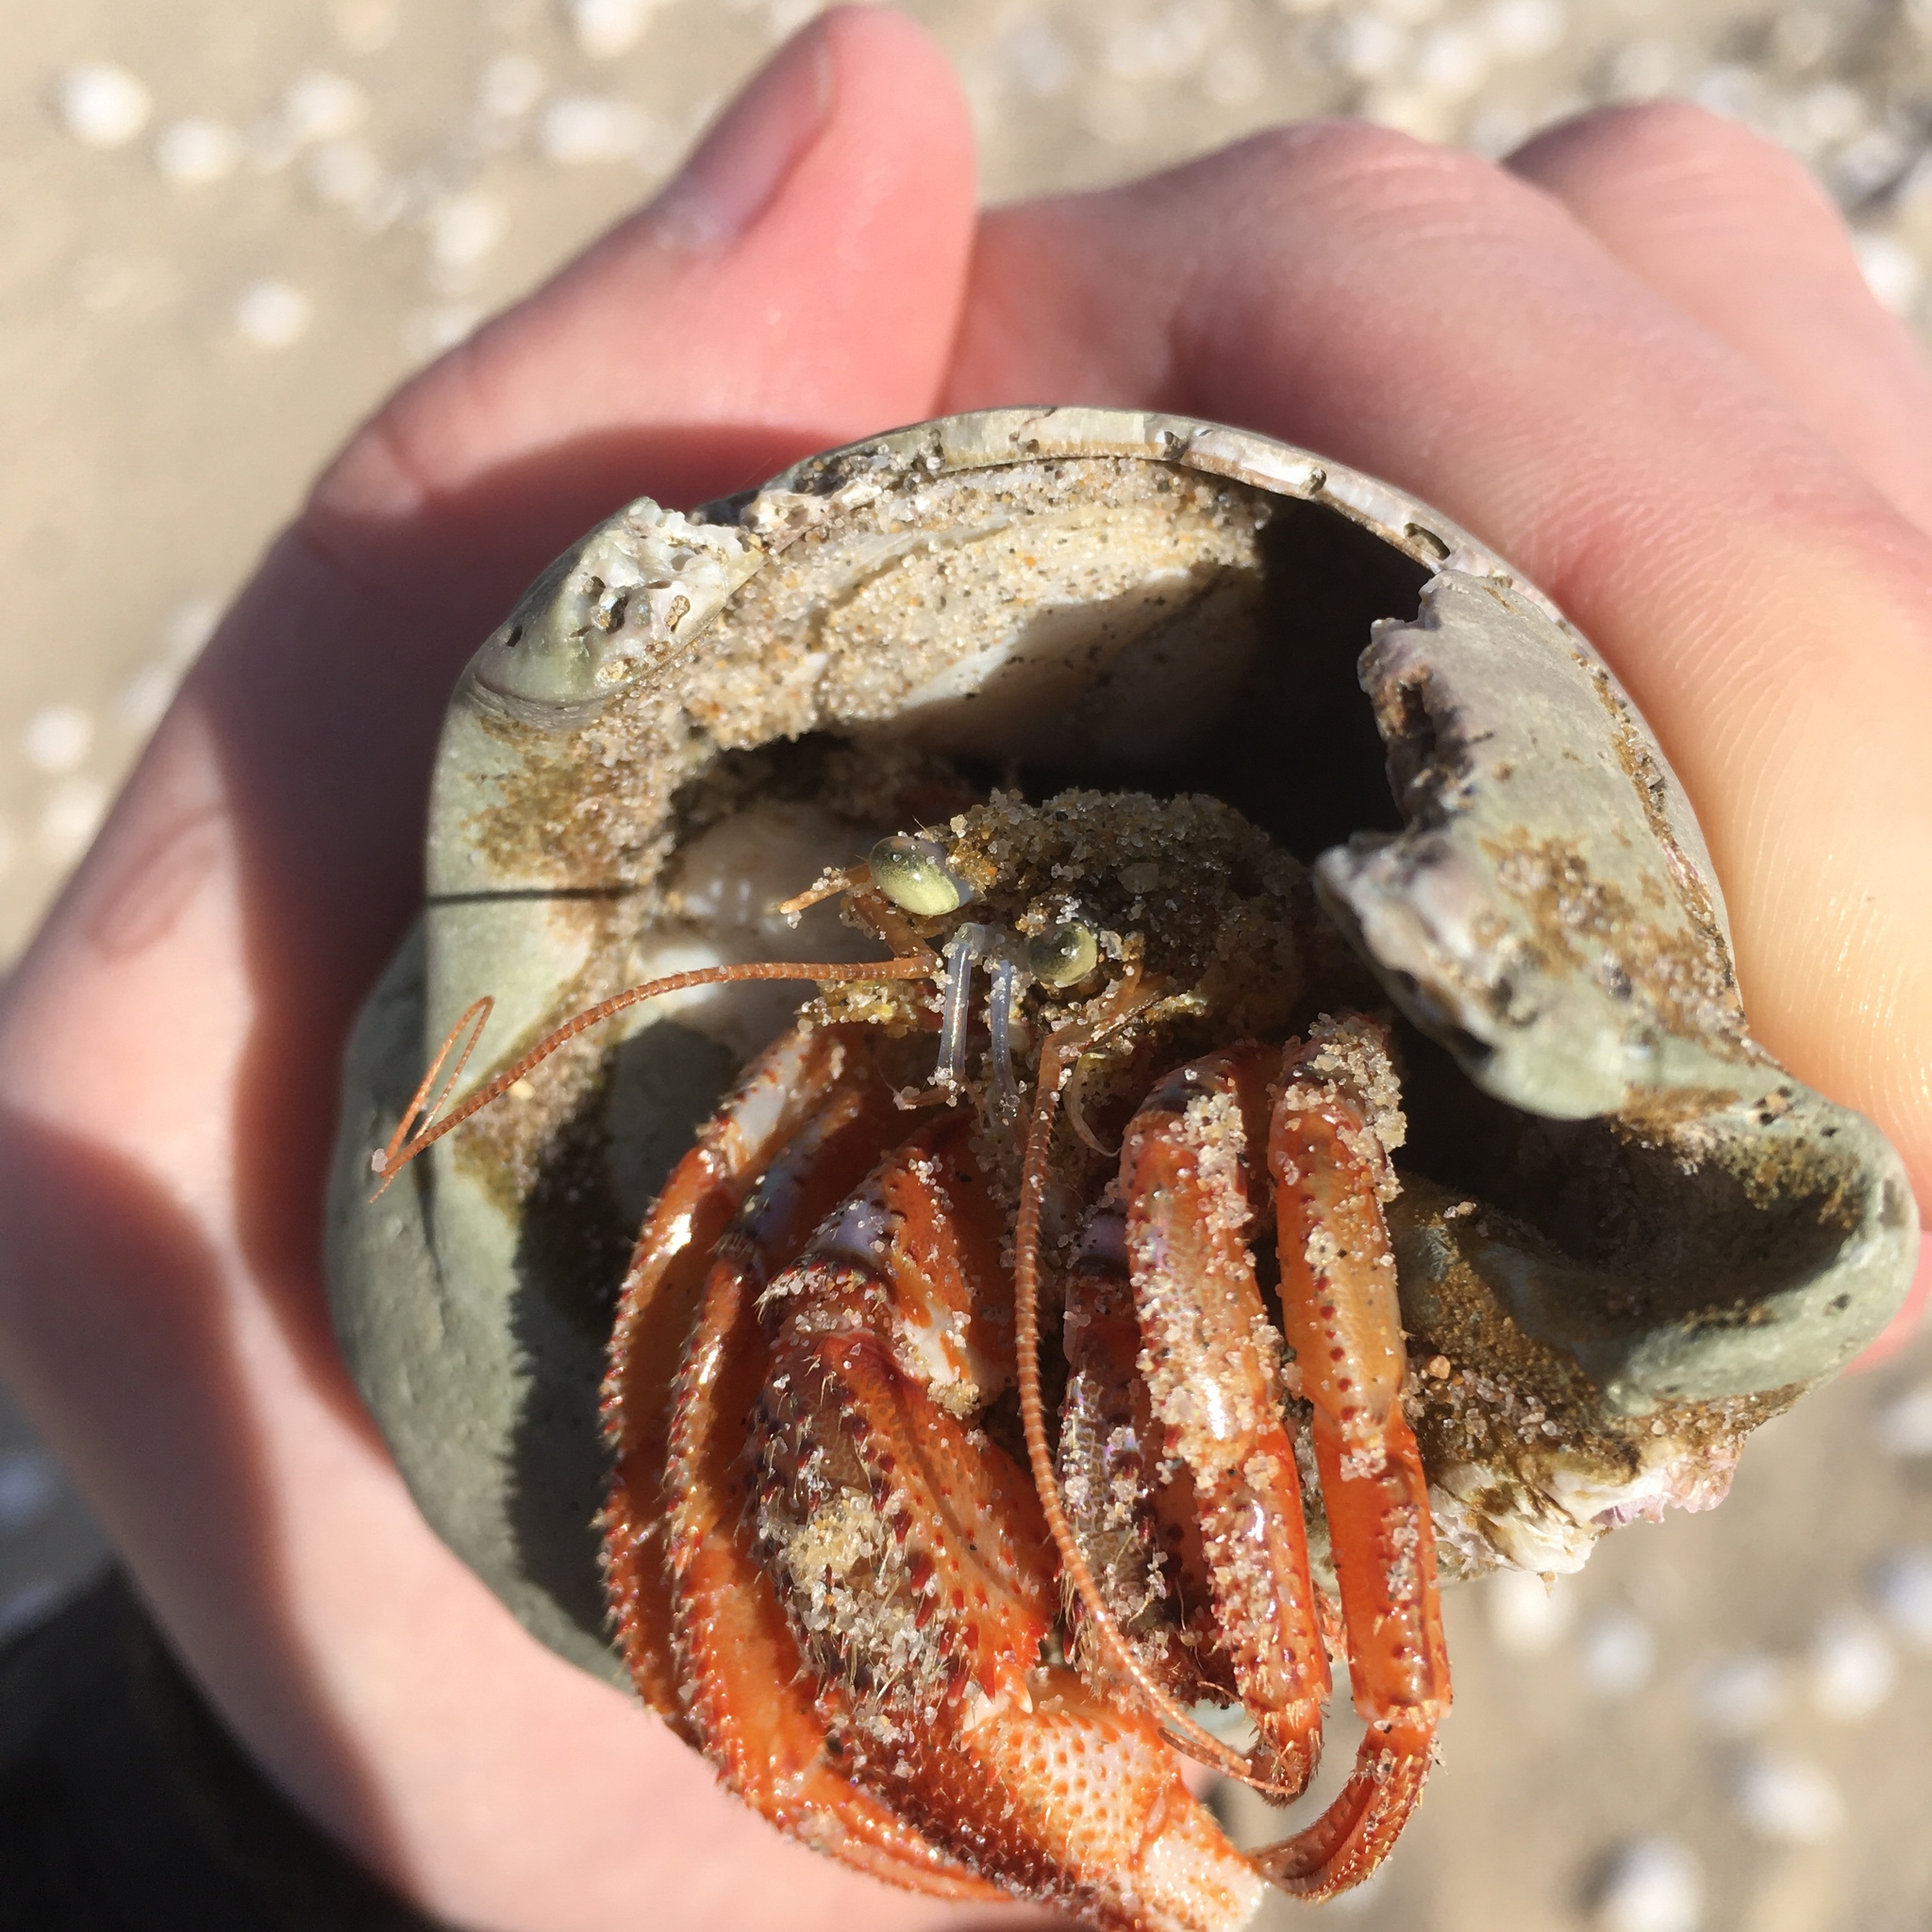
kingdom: Animalia
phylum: Arthropoda
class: Malacostraca
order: Decapoda
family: Paguridae
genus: Pagurus
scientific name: Pagurus acadianus
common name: Acadian hermit crab
